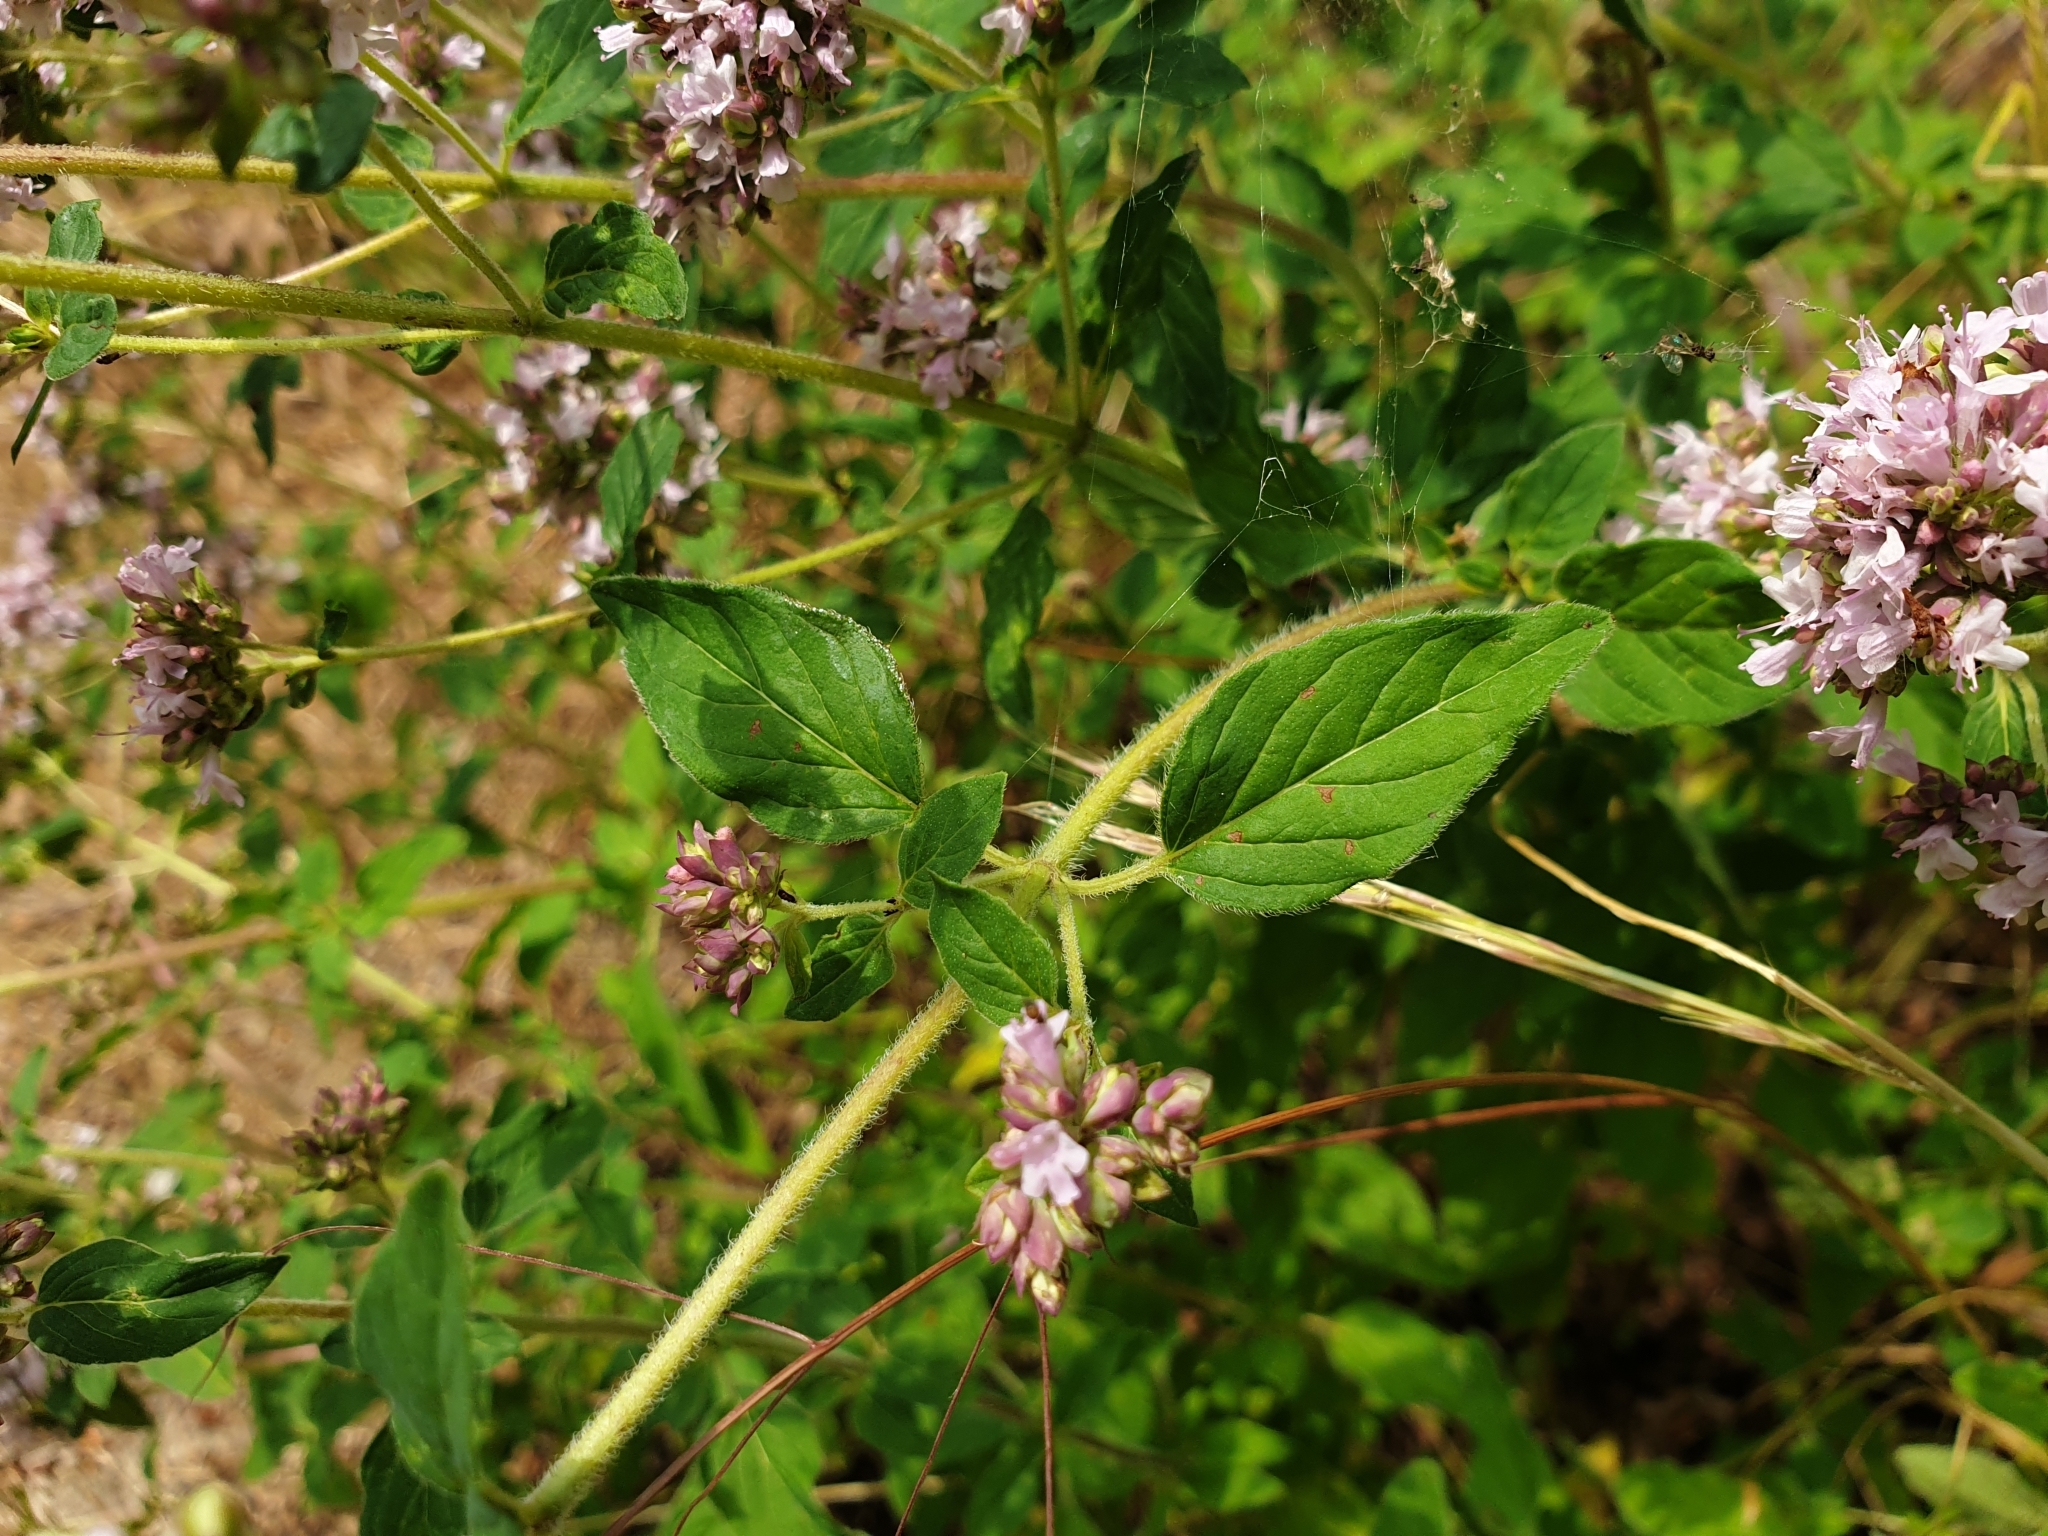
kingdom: Plantae
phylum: Tracheophyta
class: Magnoliopsida
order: Lamiales
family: Lamiaceae
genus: Origanum
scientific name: Origanum vulgare
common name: Wild marjoram
